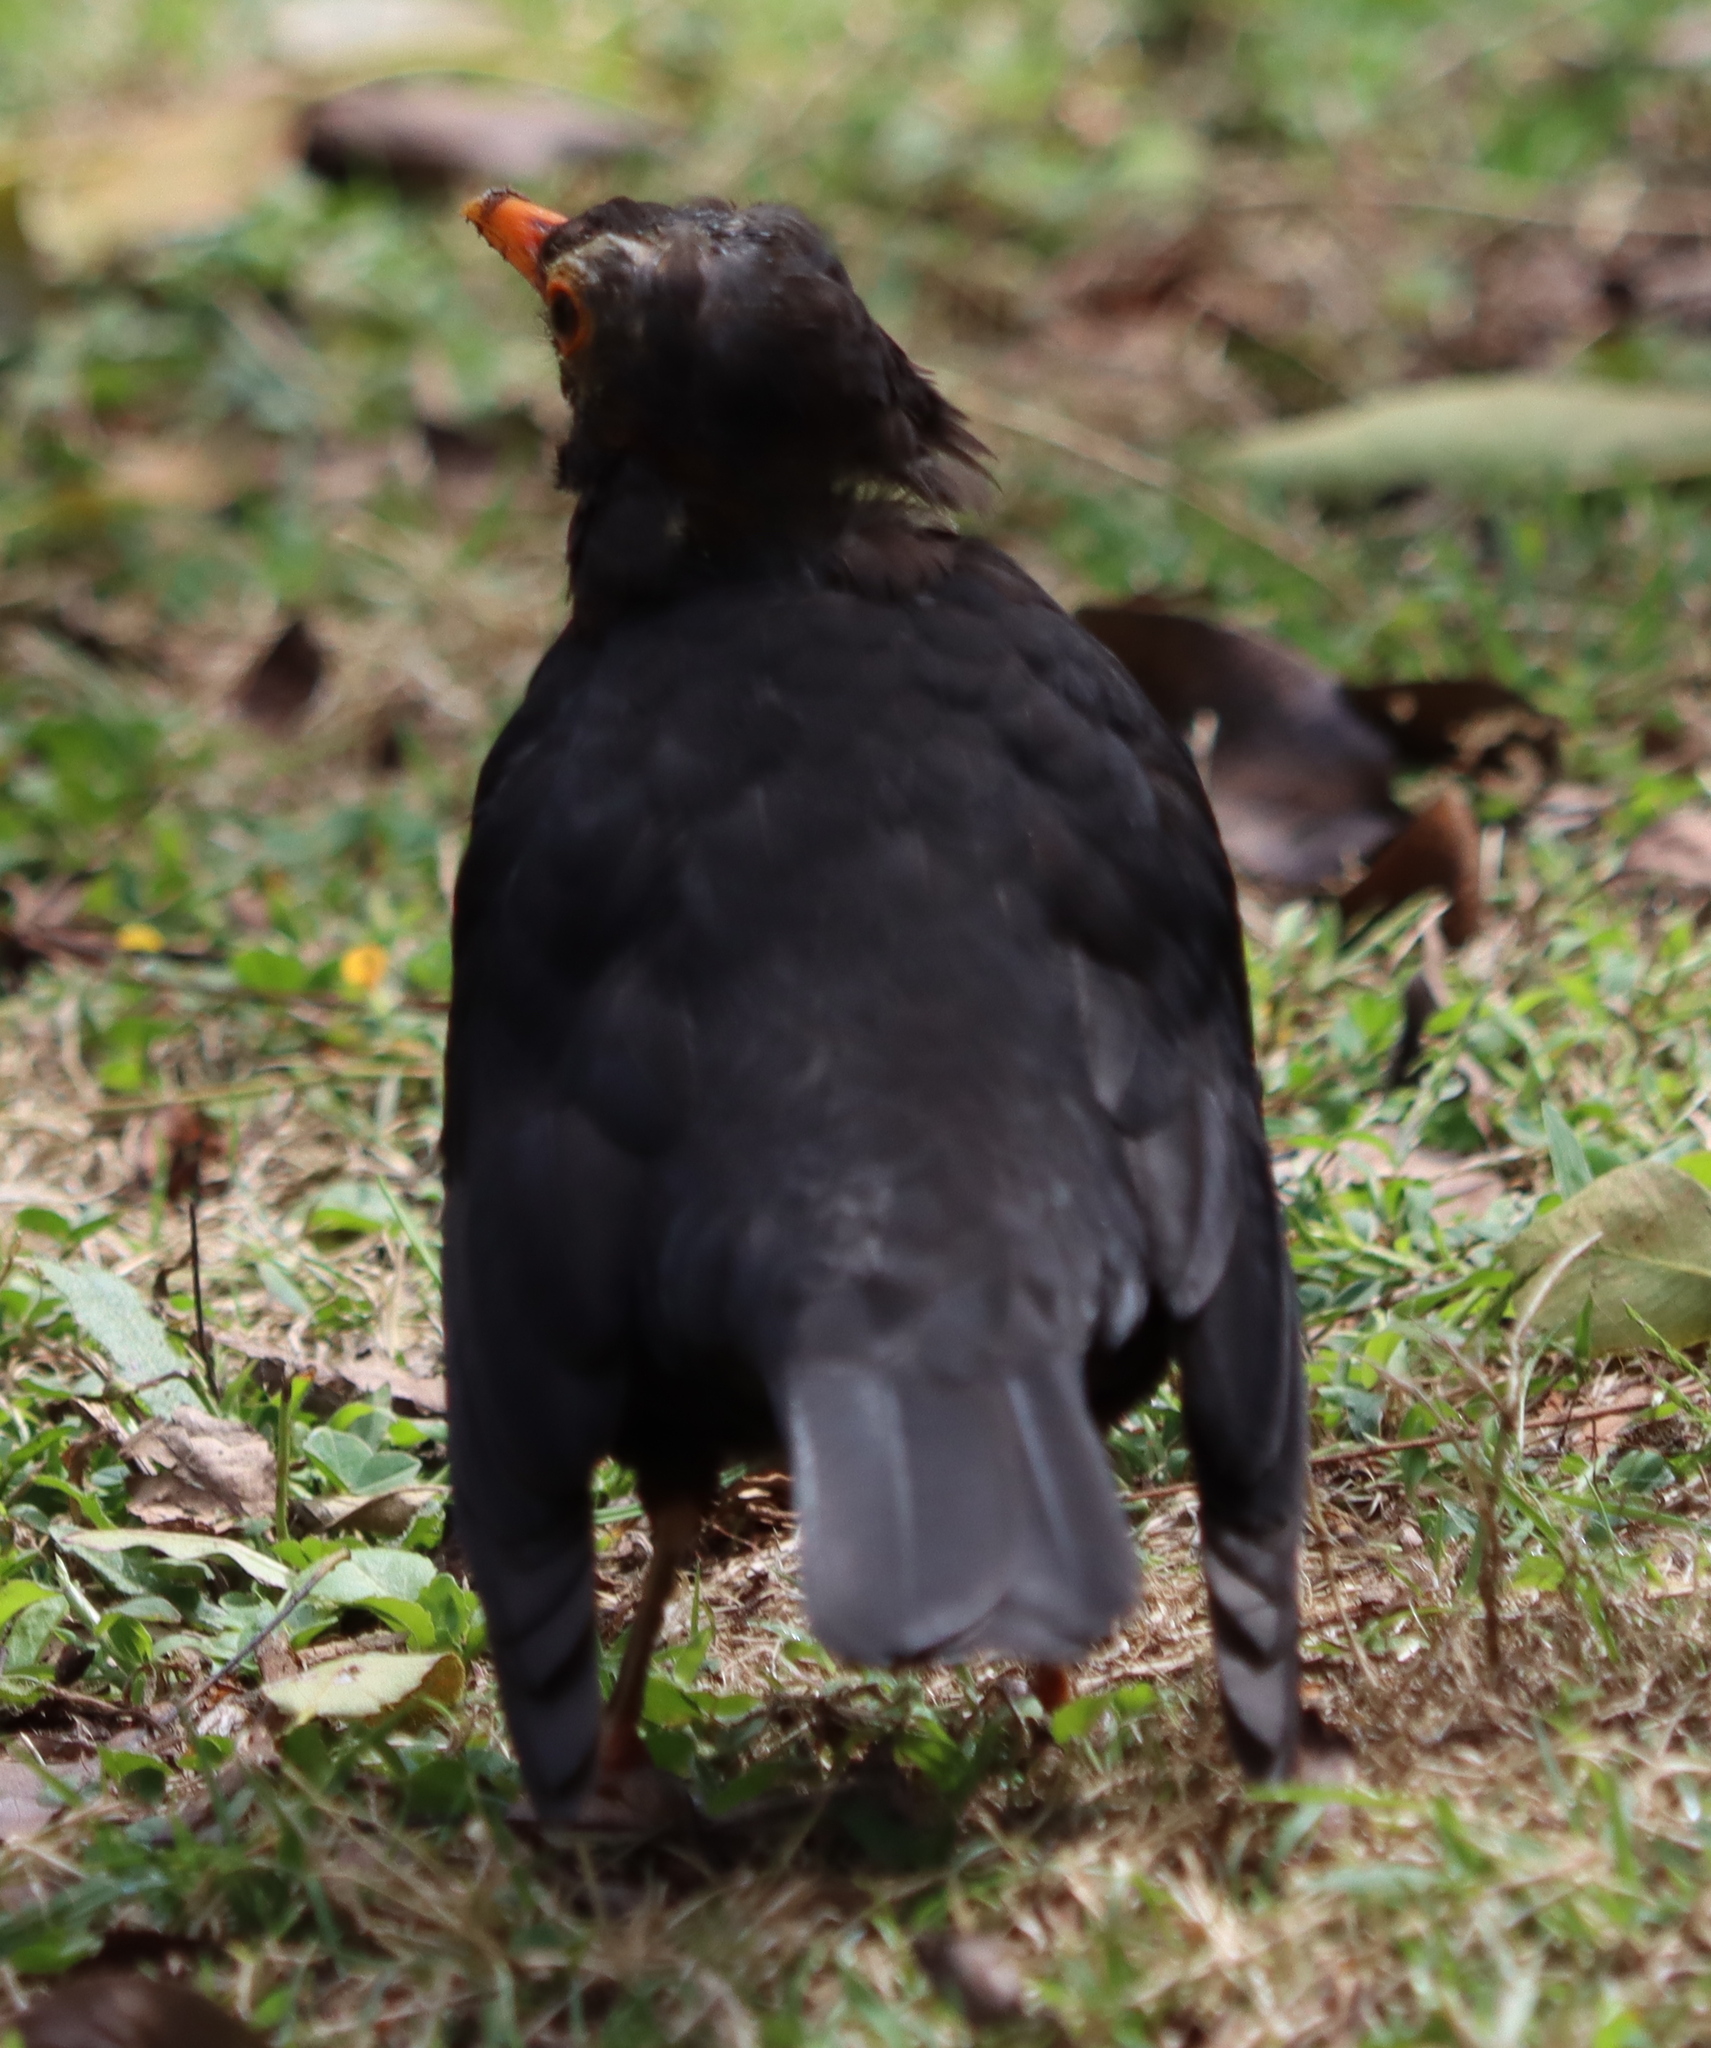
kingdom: Animalia
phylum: Chordata
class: Aves
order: Passeriformes
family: Turdidae
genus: Turdus
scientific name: Turdus merula
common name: Common blackbird
